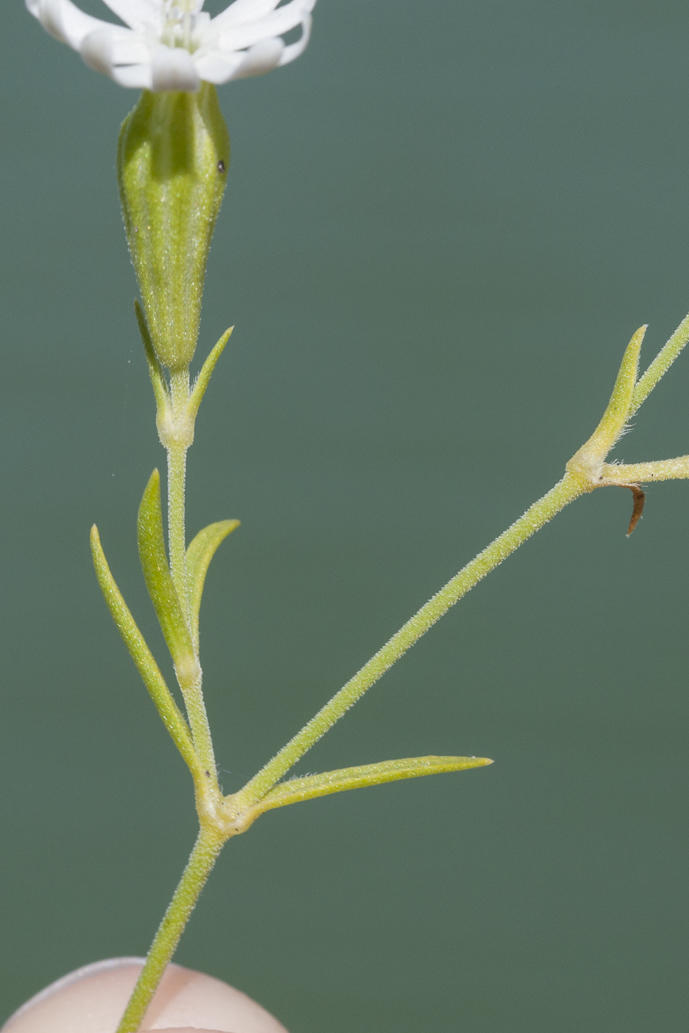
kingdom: Plantae
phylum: Tracheophyta
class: Magnoliopsida
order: Caryophyllales
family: Caryophyllaceae
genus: Silene
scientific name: Silene mundiana
